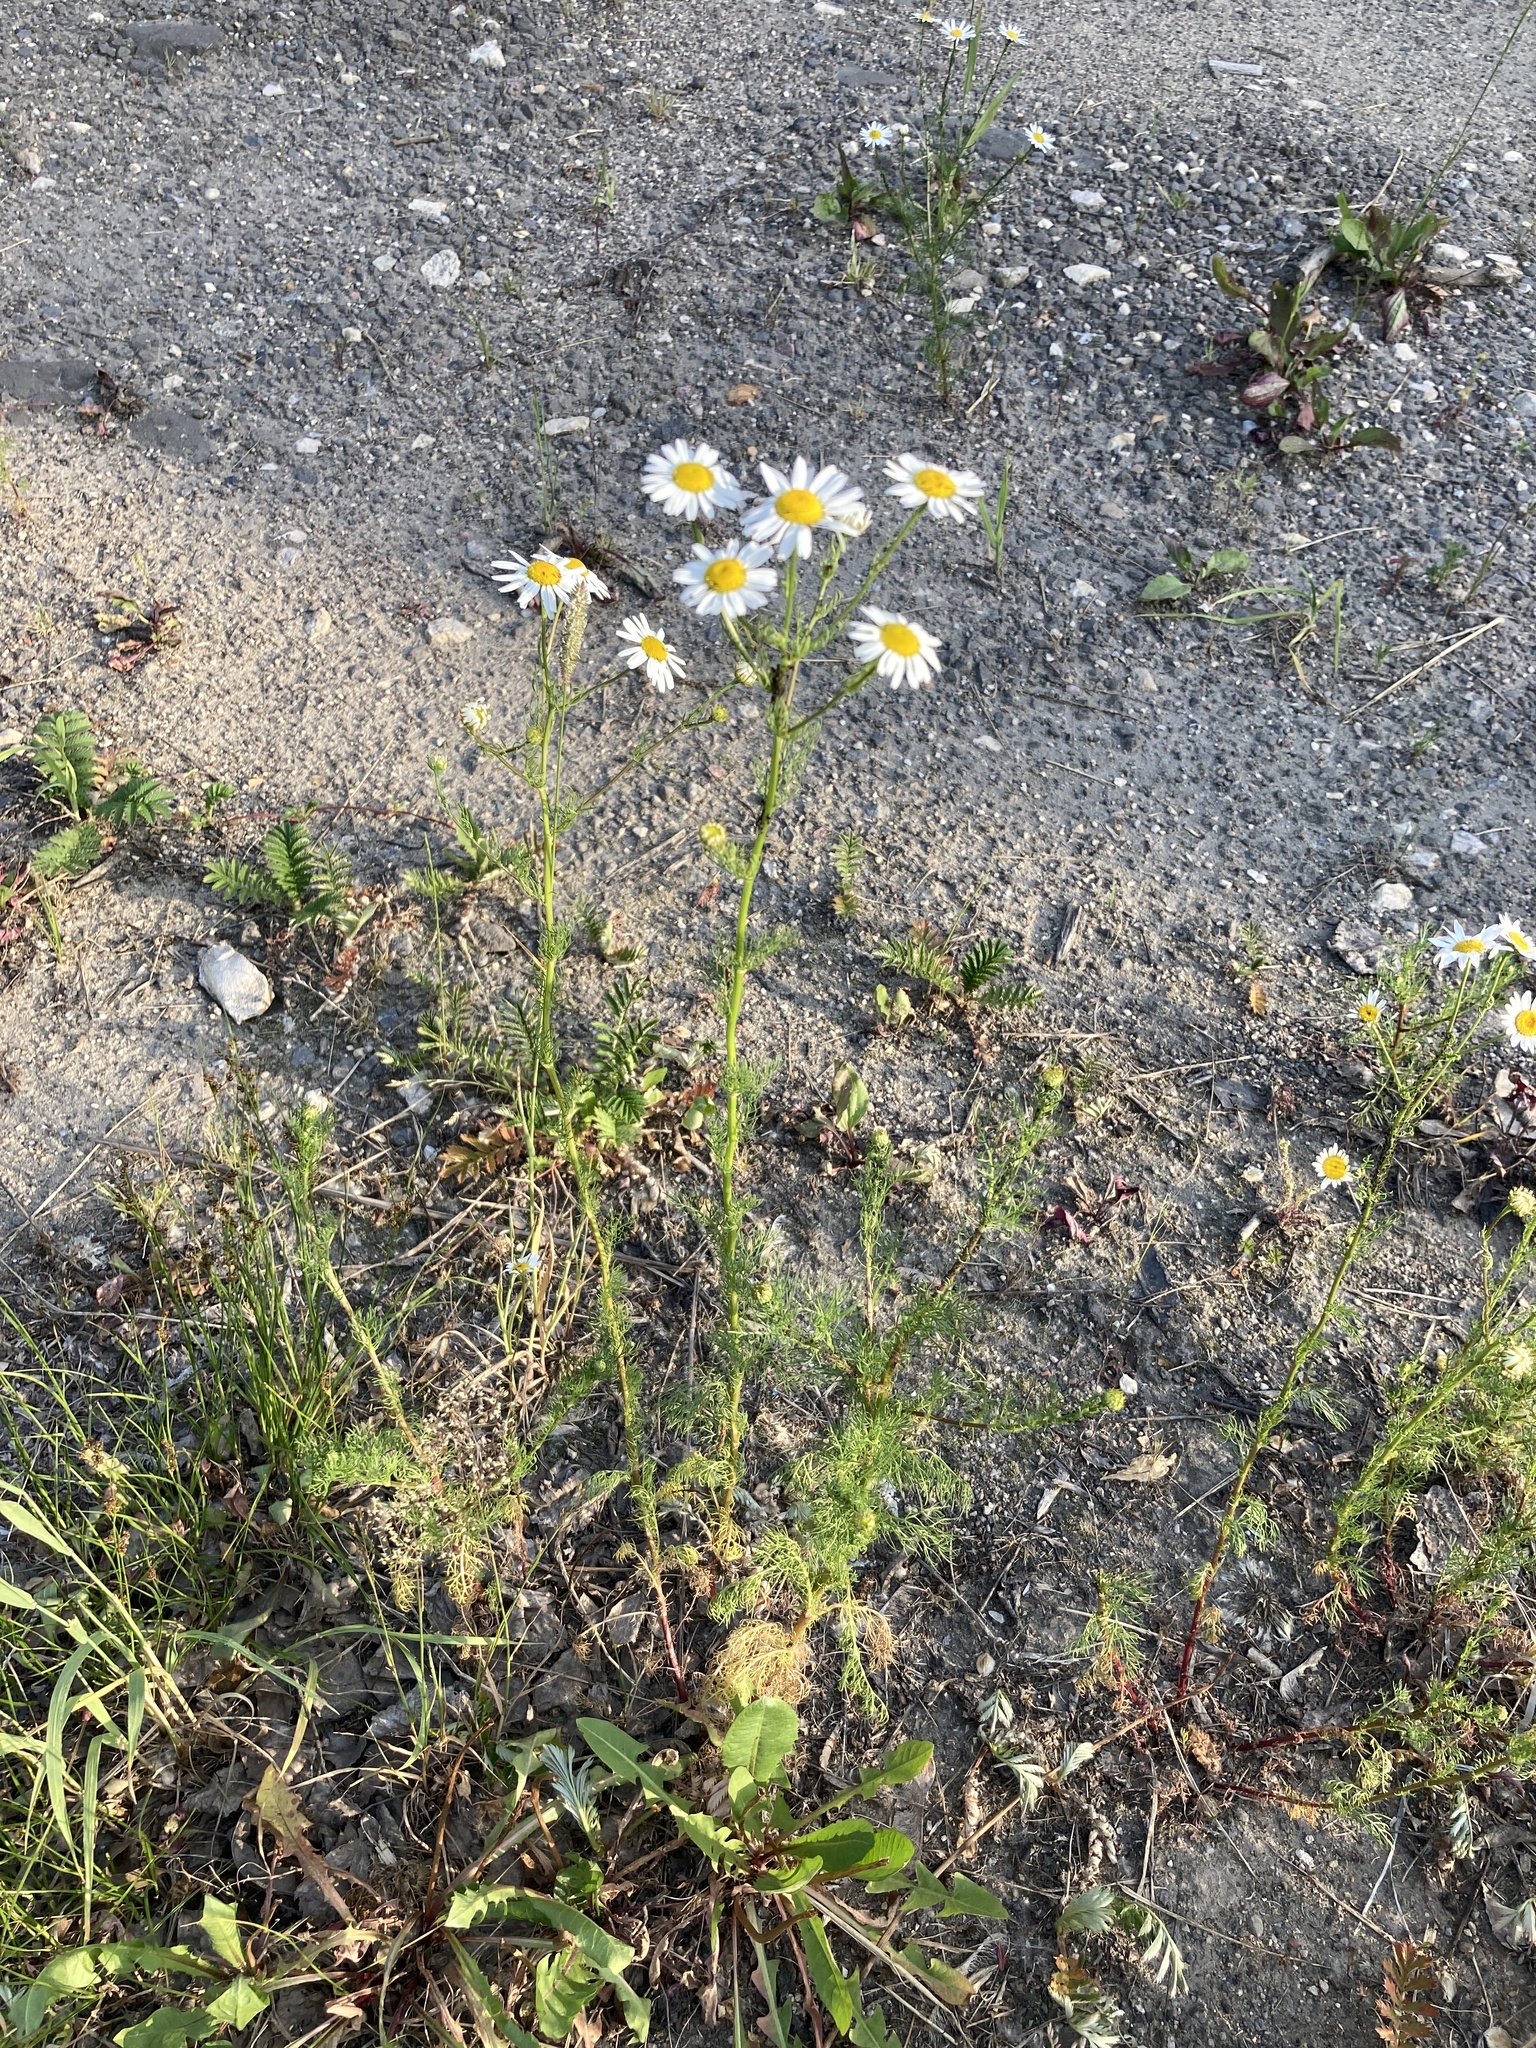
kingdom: Plantae
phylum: Tracheophyta
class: Magnoliopsida
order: Asterales
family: Asteraceae
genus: Tripleurospermum
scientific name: Tripleurospermum inodorum
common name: Scentless mayweed
